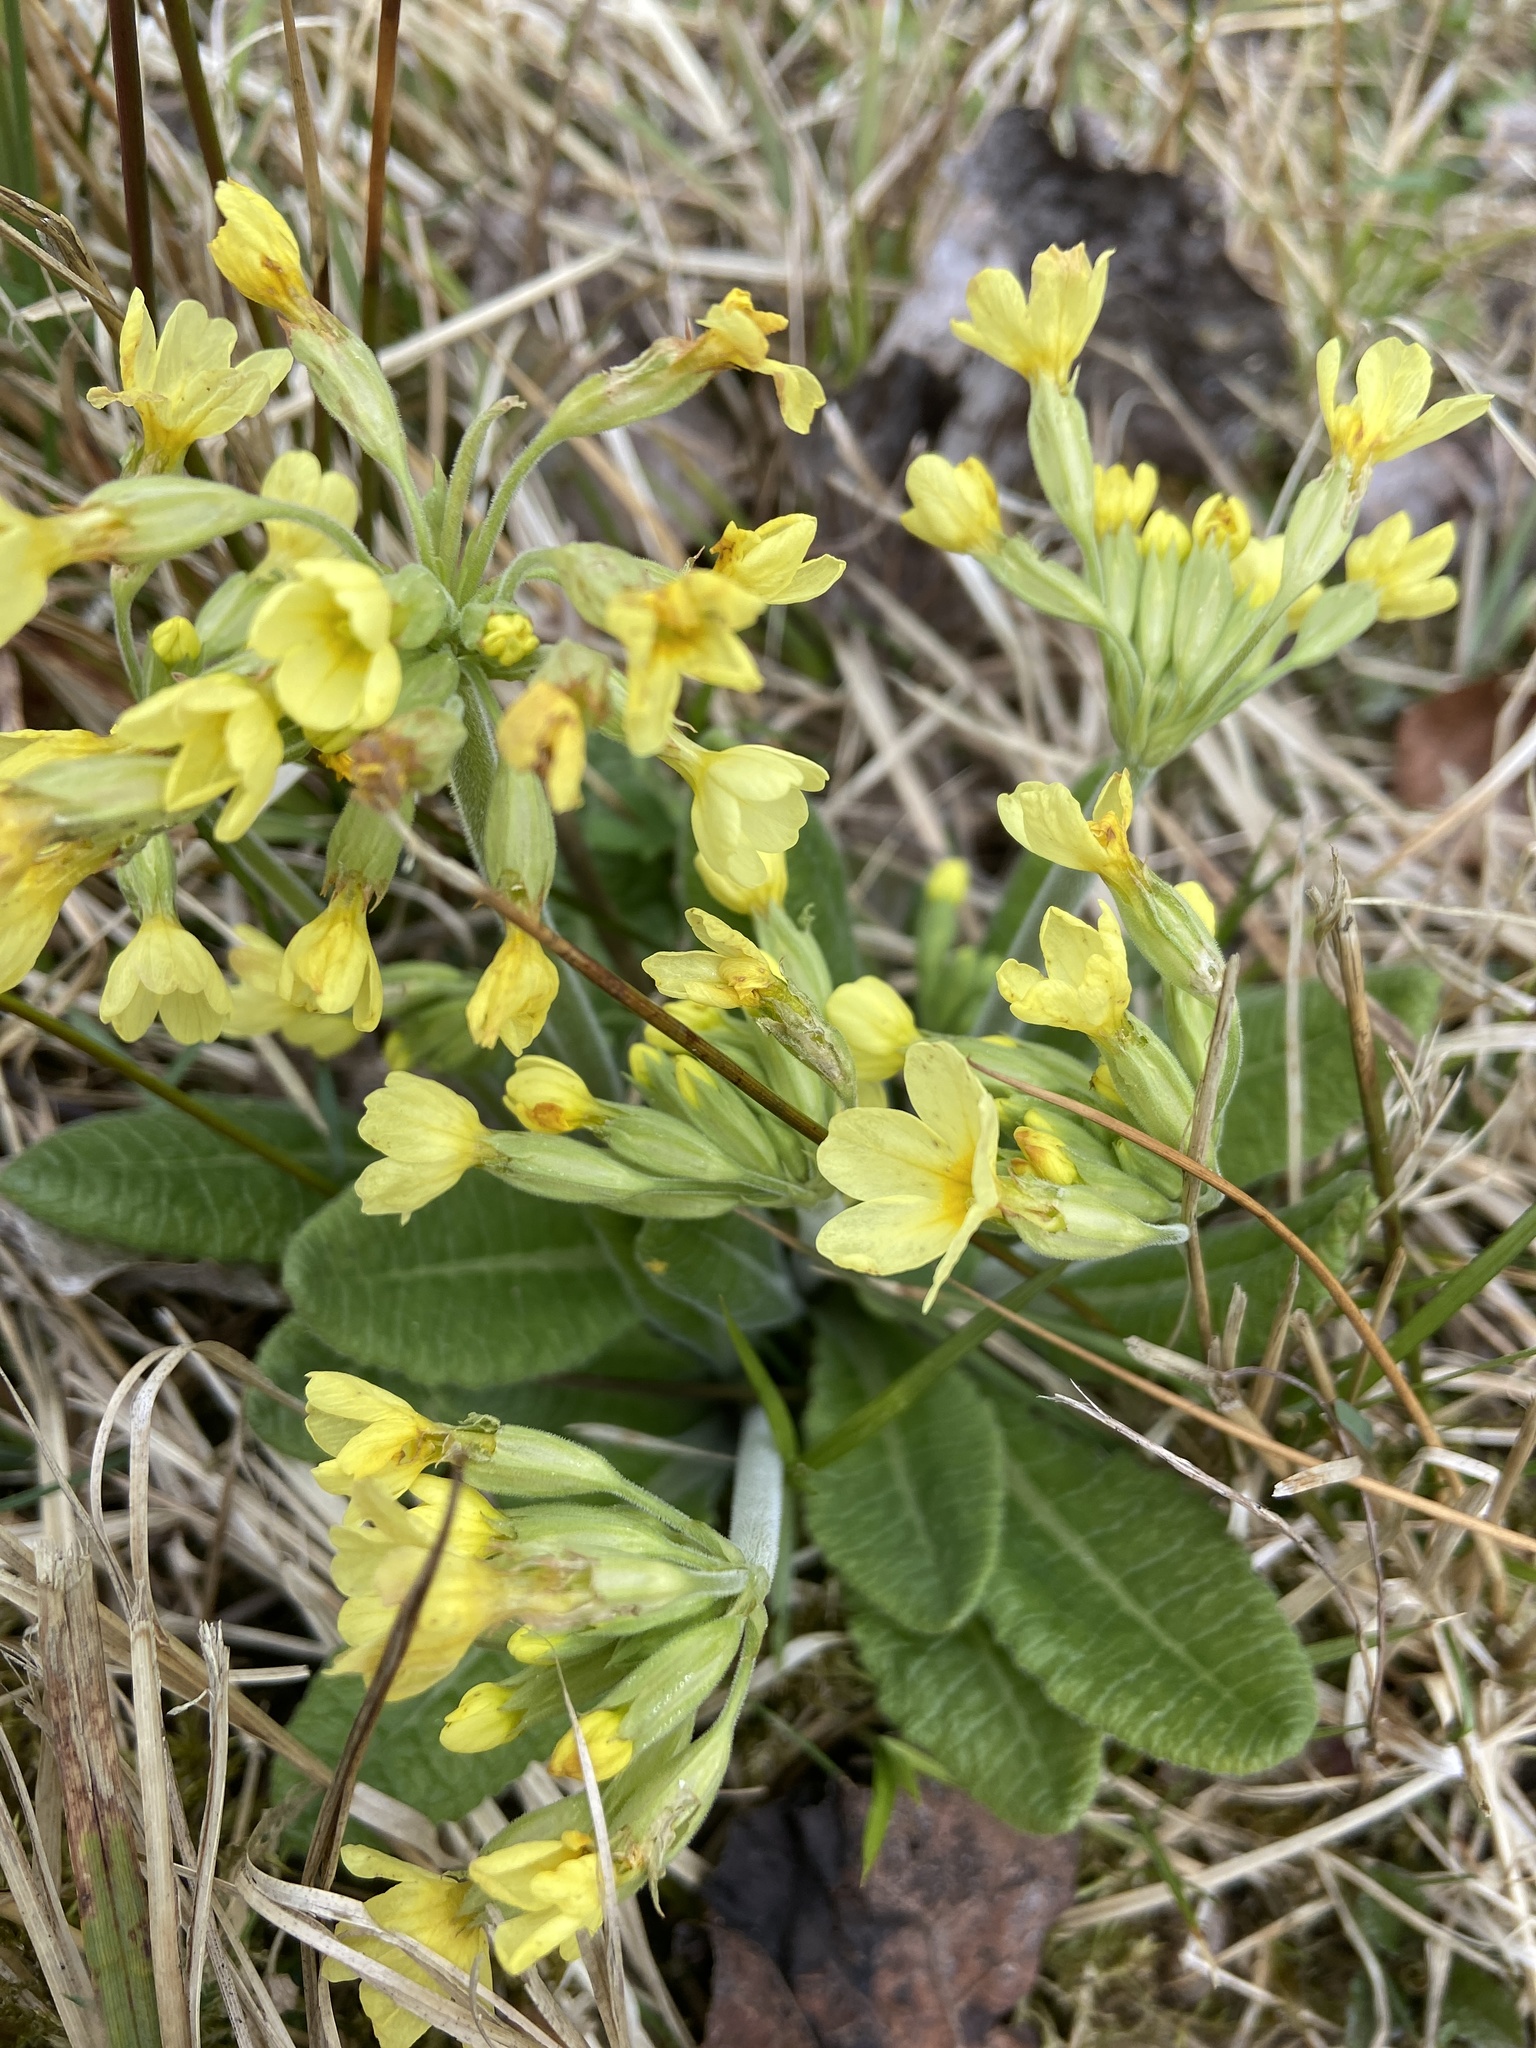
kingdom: Plantae
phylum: Tracheophyta
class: Magnoliopsida
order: Ericales
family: Primulaceae
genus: Primula
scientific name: Primula elatior
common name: Oxlip
